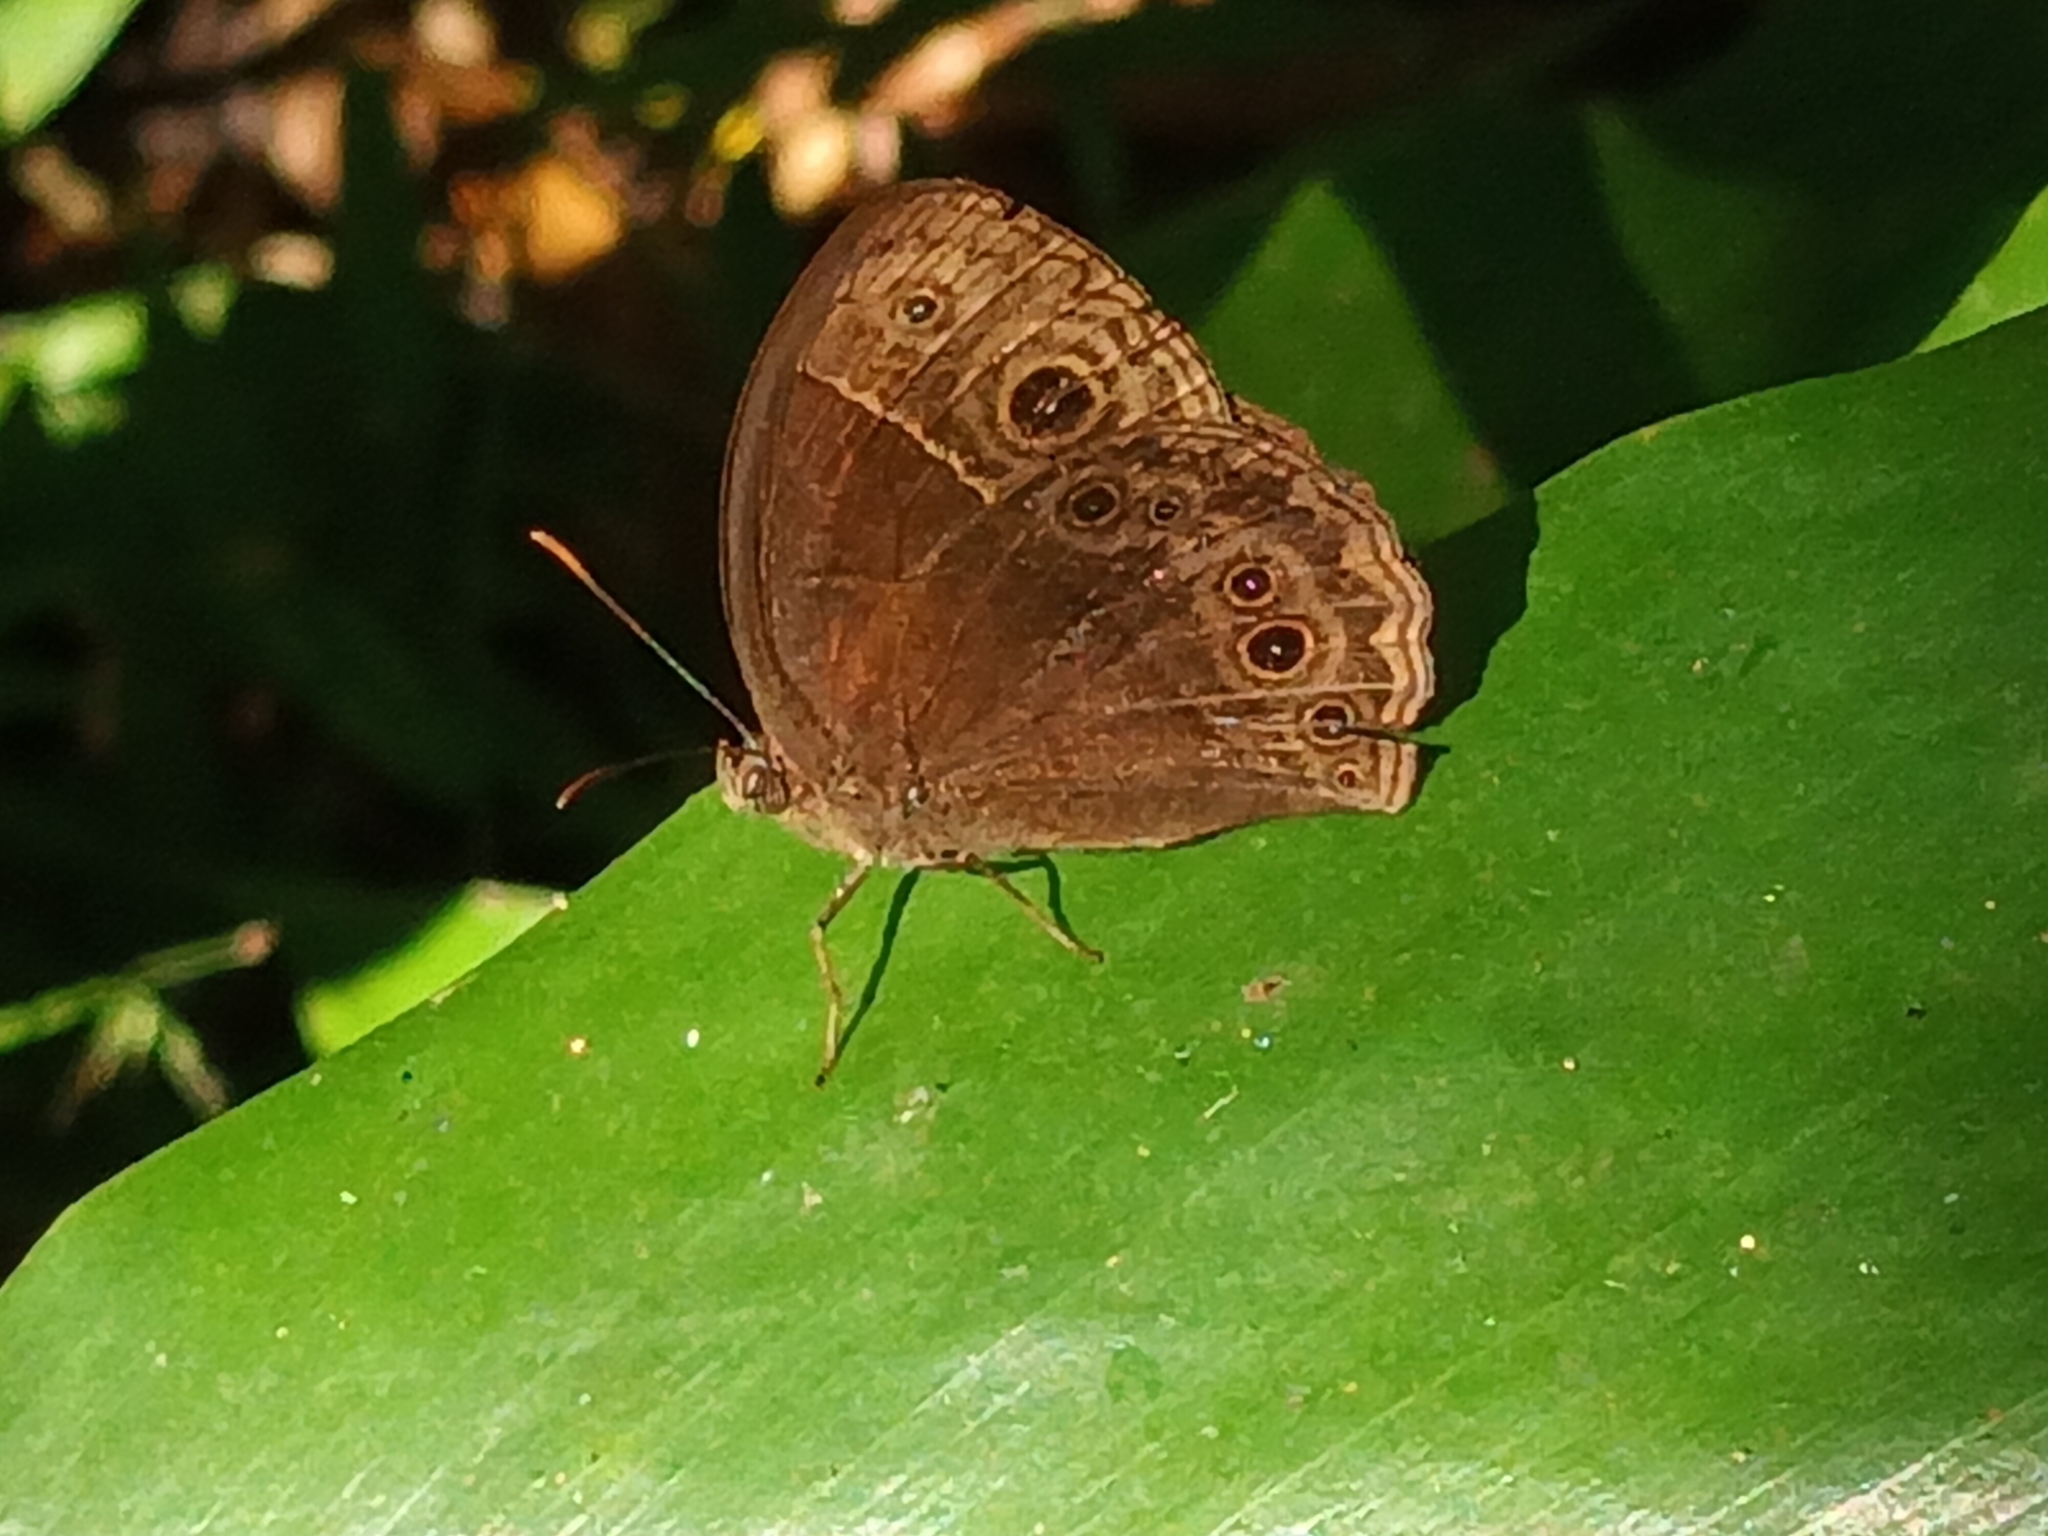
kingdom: Animalia
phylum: Arthropoda
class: Insecta
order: Lepidoptera
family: Nymphalidae
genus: Mycalesis
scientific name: Mycalesis rhacotis
